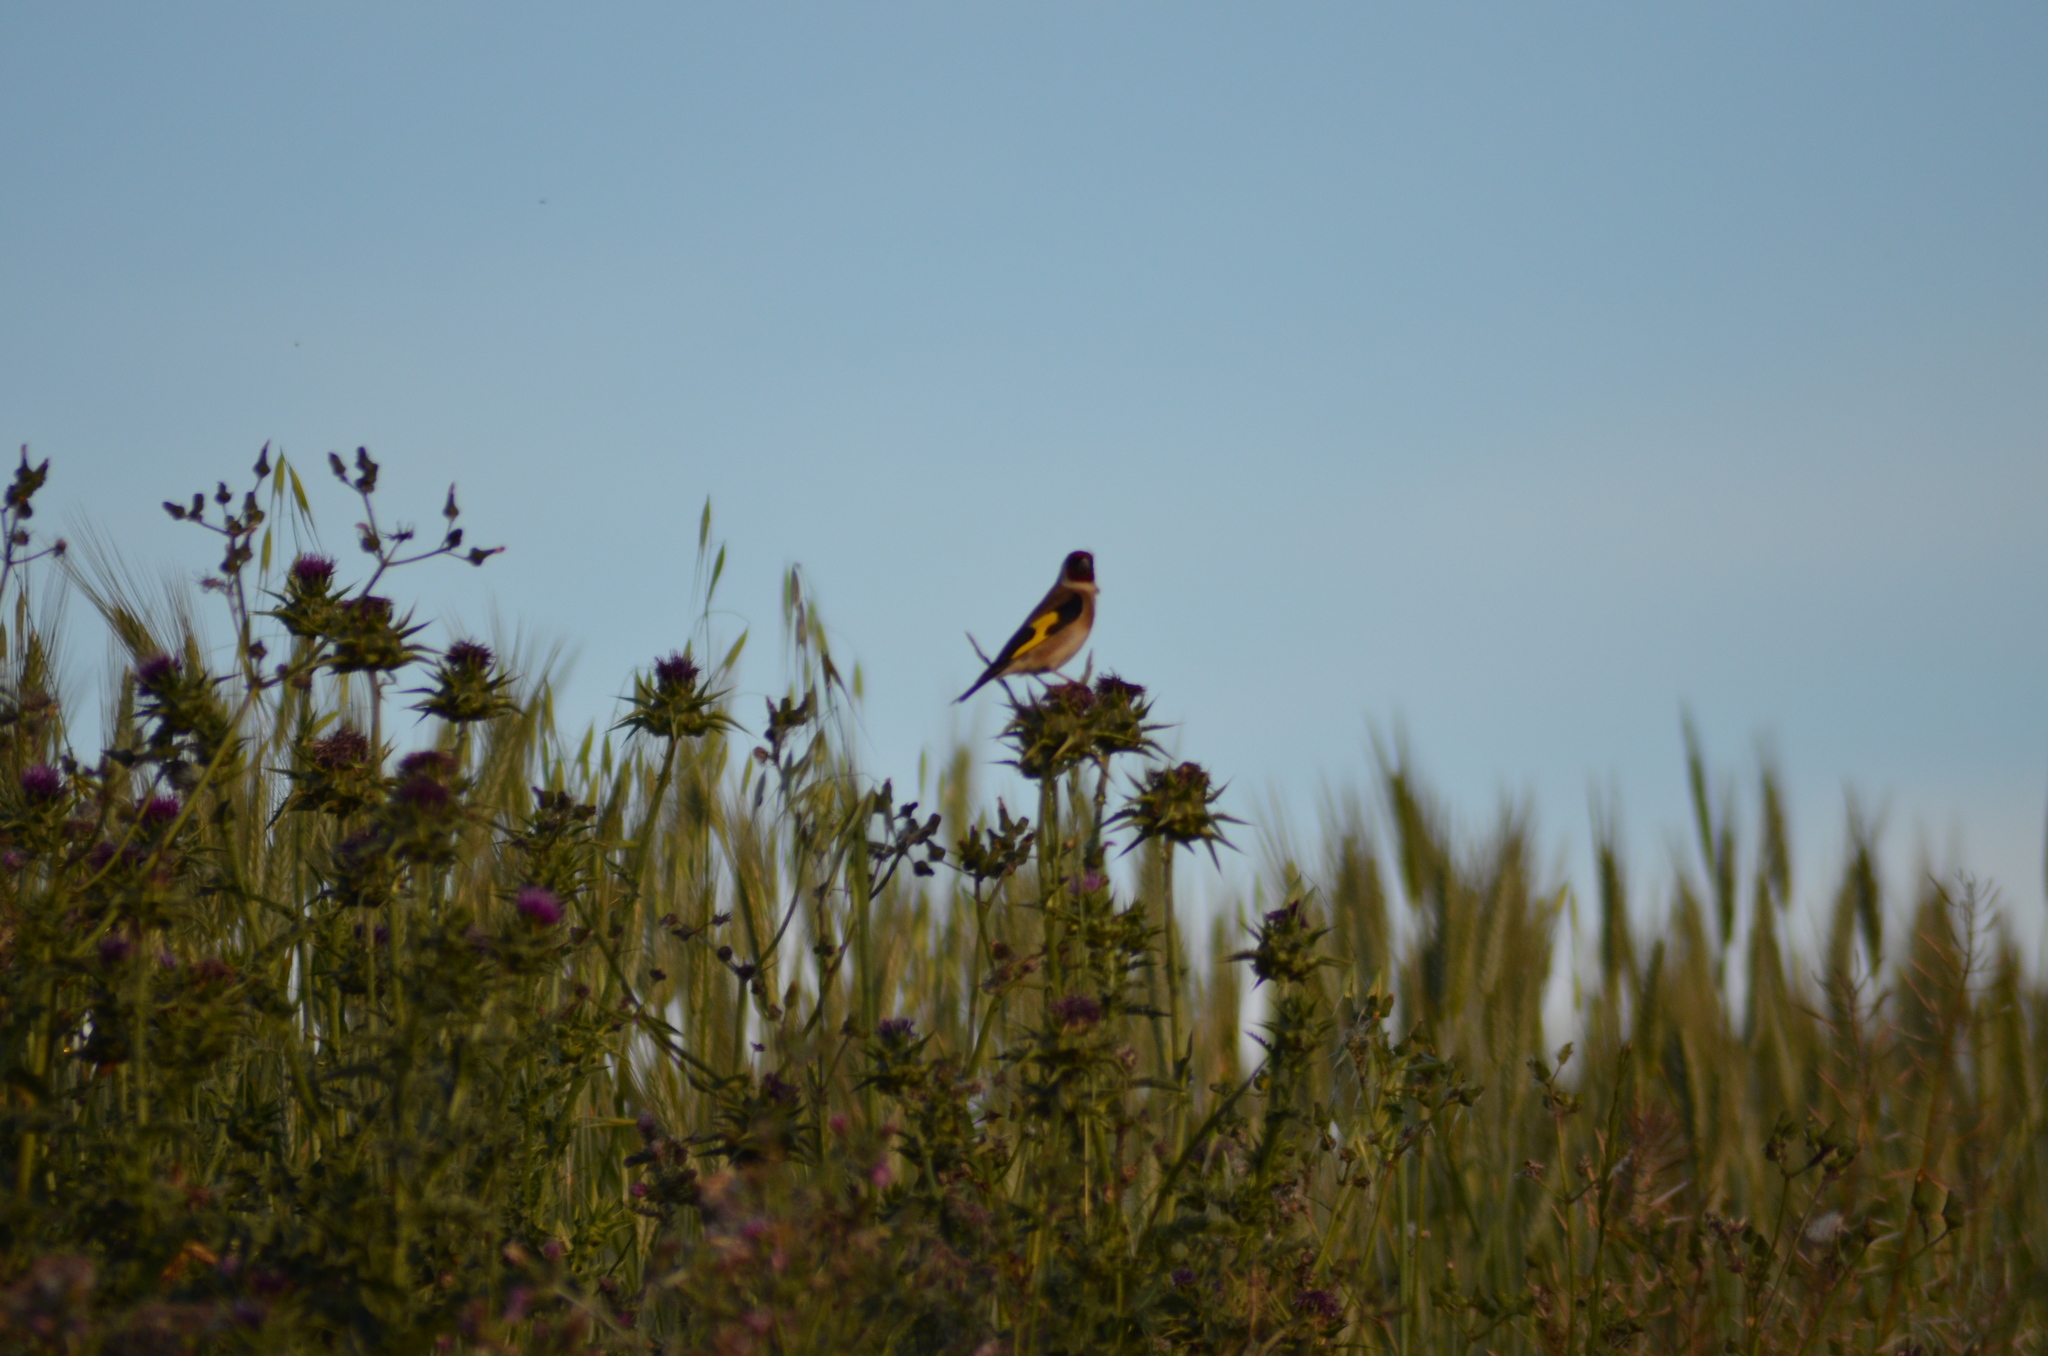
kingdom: Animalia
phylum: Chordata
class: Aves
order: Passeriformes
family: Fringillidae
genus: Carduelis
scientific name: Carduelis carduelis
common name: European goldfinch
